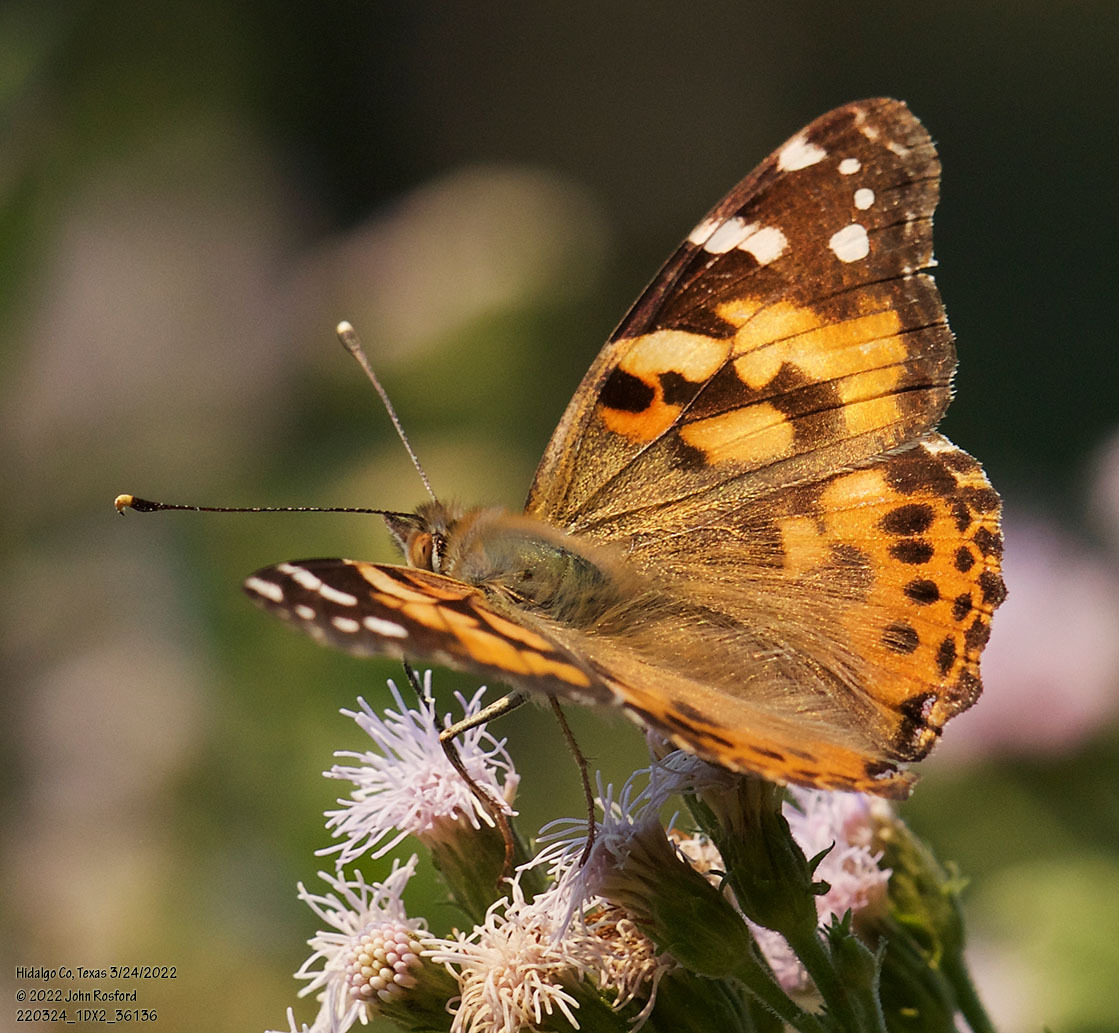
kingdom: Animalia
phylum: Arthropoda
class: Insecta
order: Lepidoptera
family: Nymphalidae
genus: Vanessa
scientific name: Vanessa cardui
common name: Painted lady
